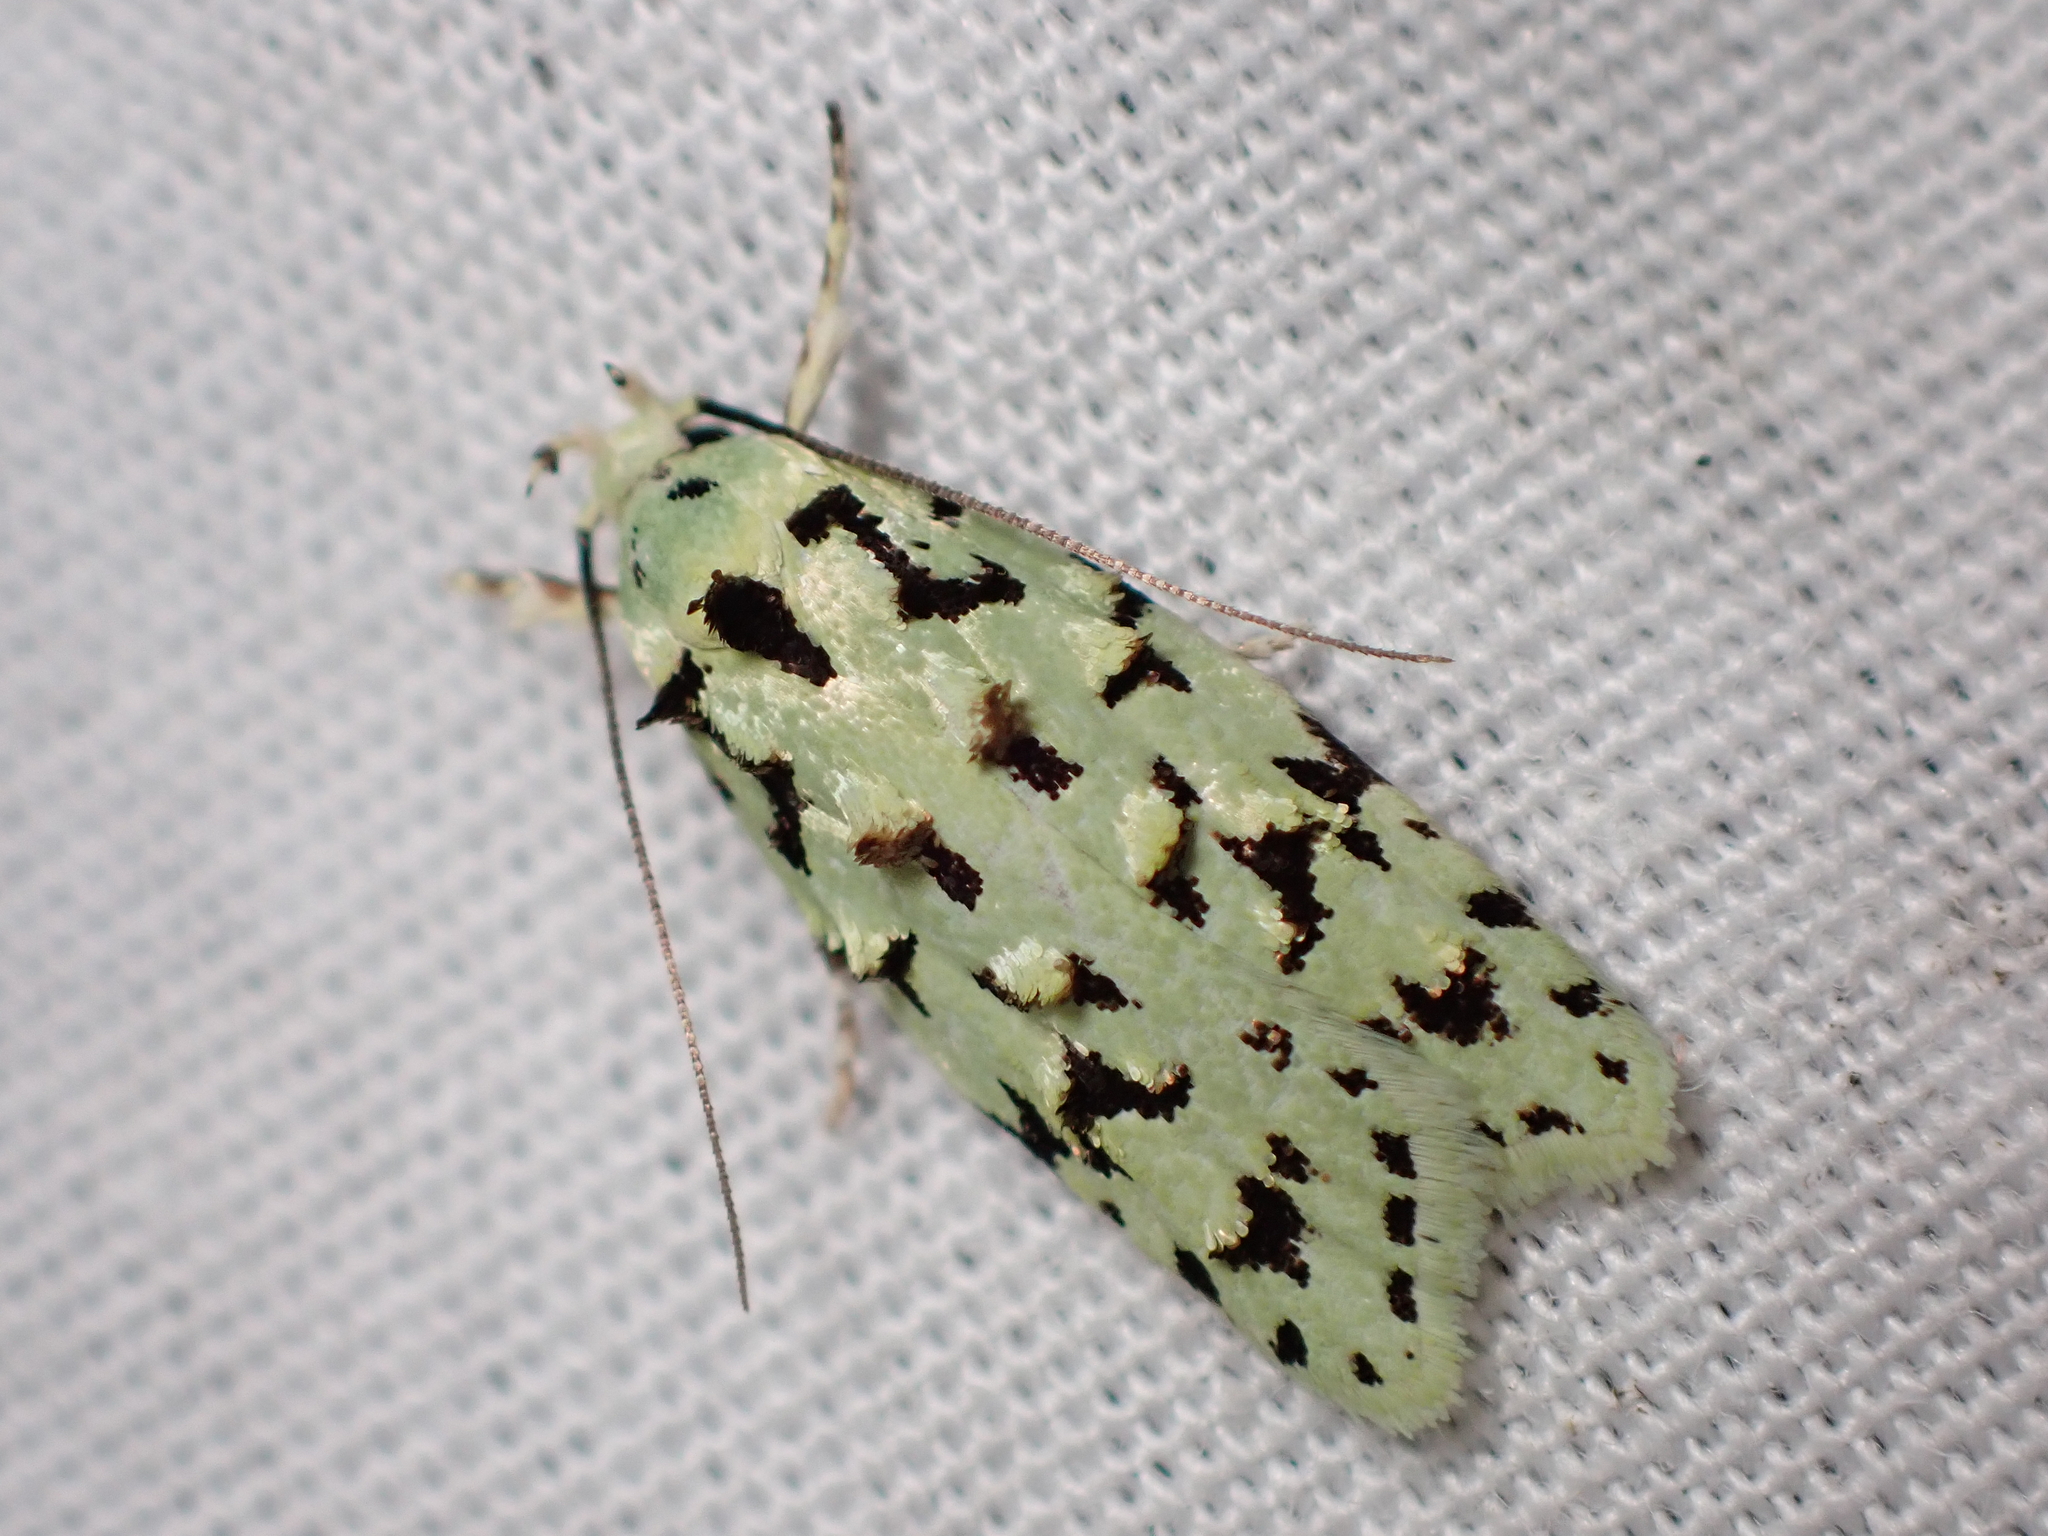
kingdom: Animalia
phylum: Arthropoda
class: Insecta
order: Lepidoptera
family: Oecophoridae
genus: Izatha
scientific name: Izatha peroneanella
